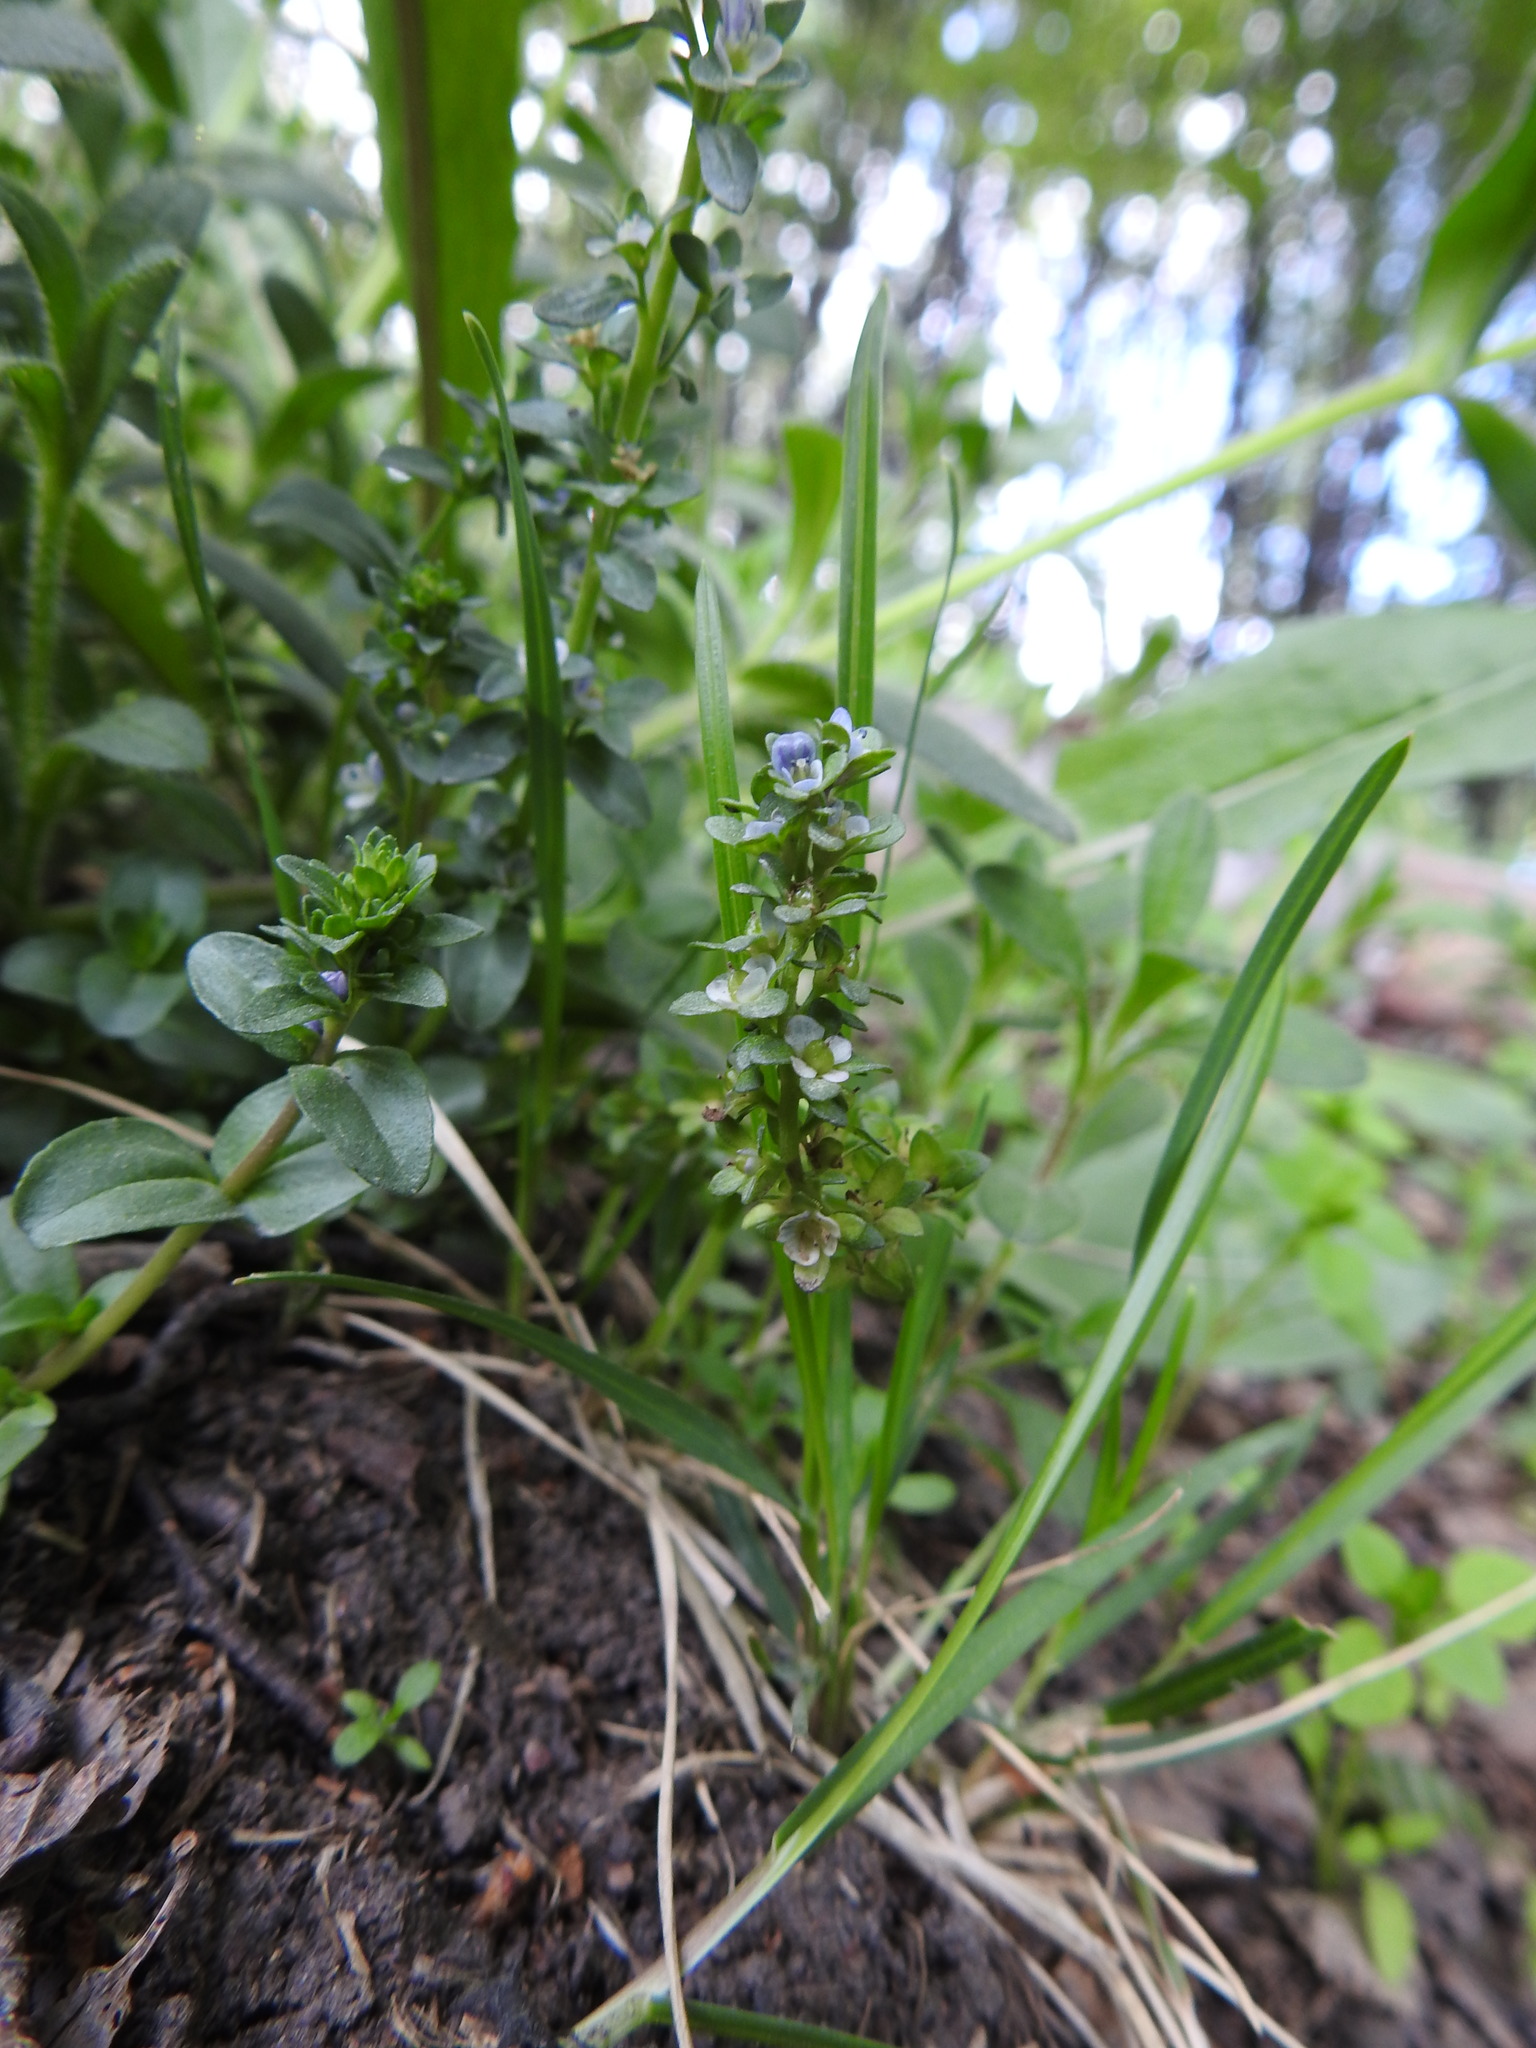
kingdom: Plantae
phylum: Tracheophyta
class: Magnoliopsida
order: Lamiales
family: Plantaginaceae
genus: Veronica
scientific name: Veronica serpyllifolia
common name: Thyme-leaved speedwell
